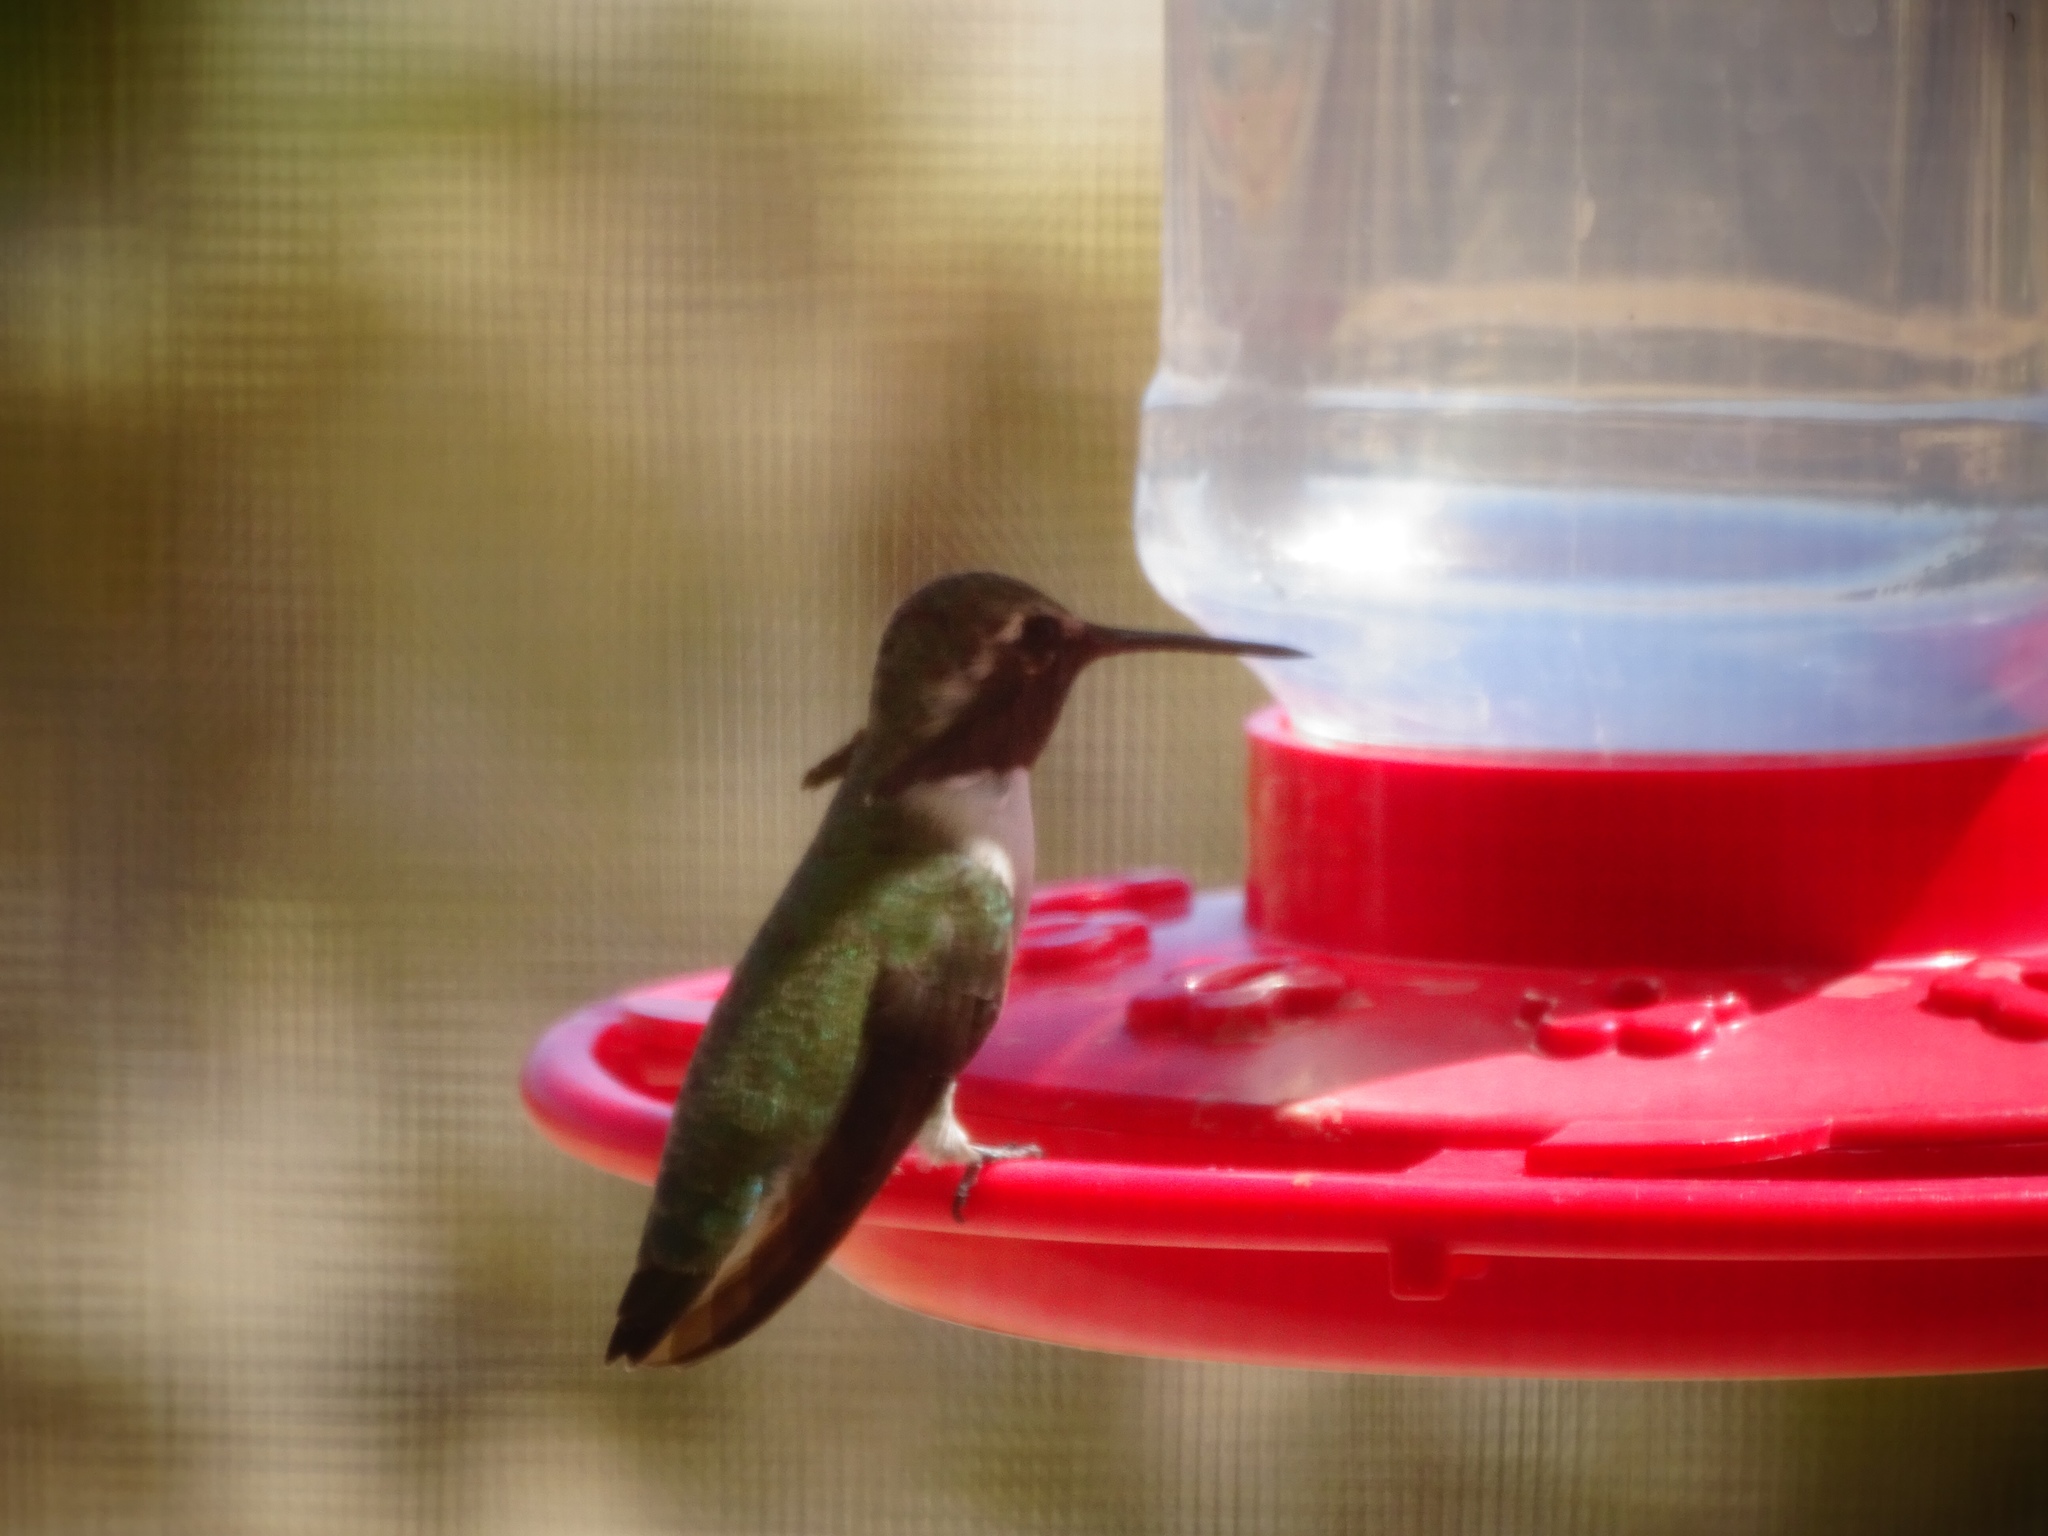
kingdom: Animalia
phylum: Chordata
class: Aves
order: Apodiformes
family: Trochilidae
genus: Calypte
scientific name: Calypte costae
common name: Costa's hummingbird
